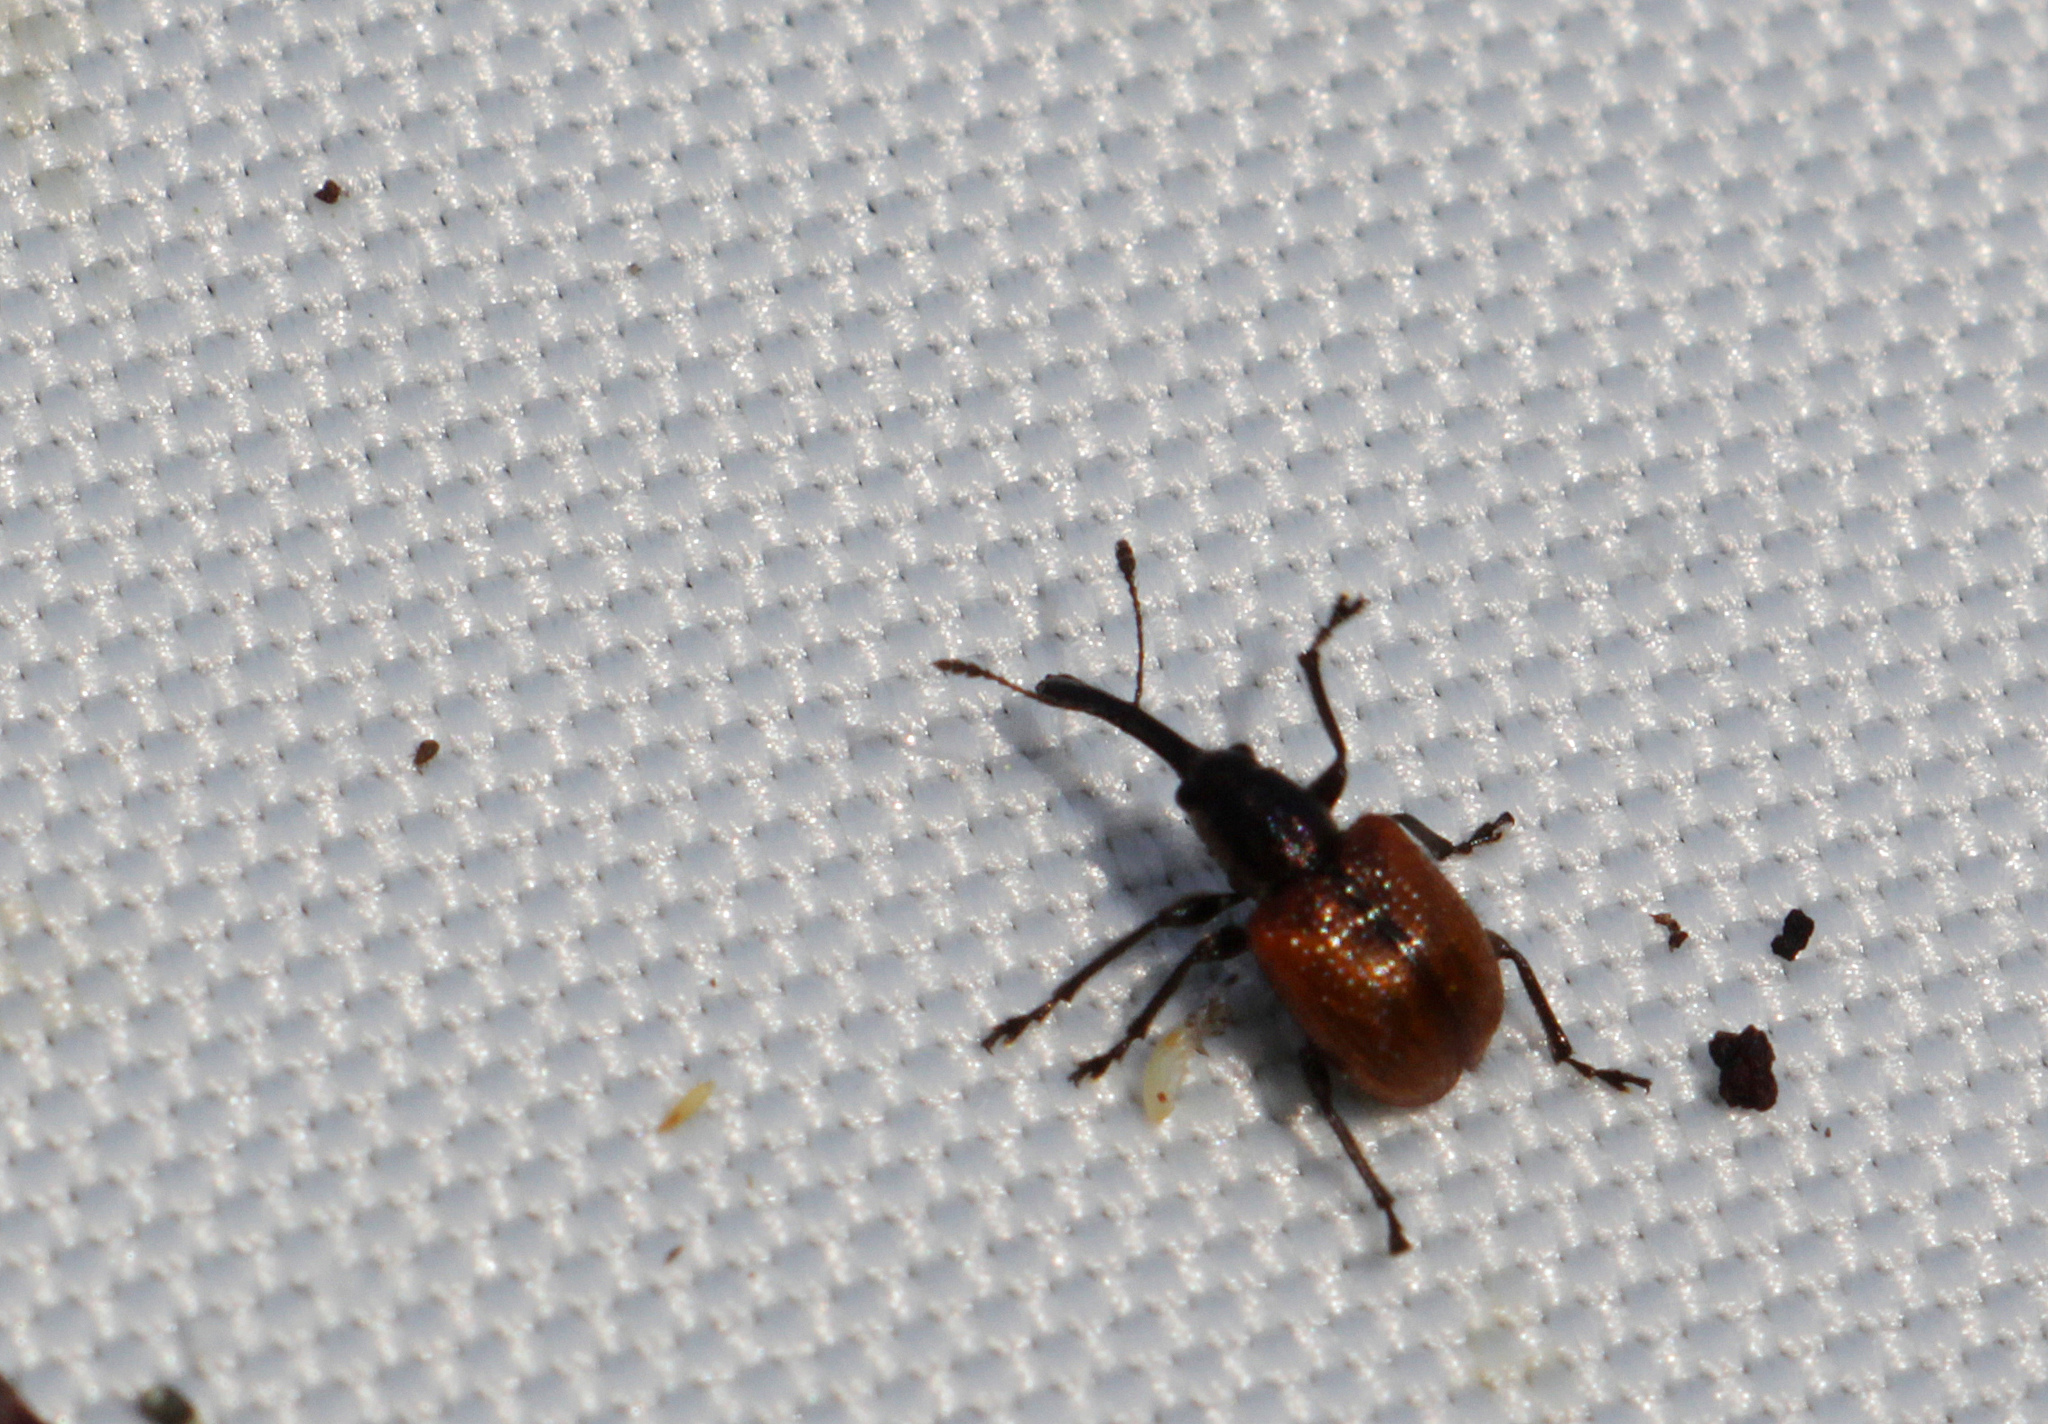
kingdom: Animalia
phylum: Arthropoda
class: Insecta
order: Coleoptera
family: Rhynchitidae
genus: Tatianaerhynchites
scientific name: Tatianaerhynchites aequatus
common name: Apple fruit rhynchites
